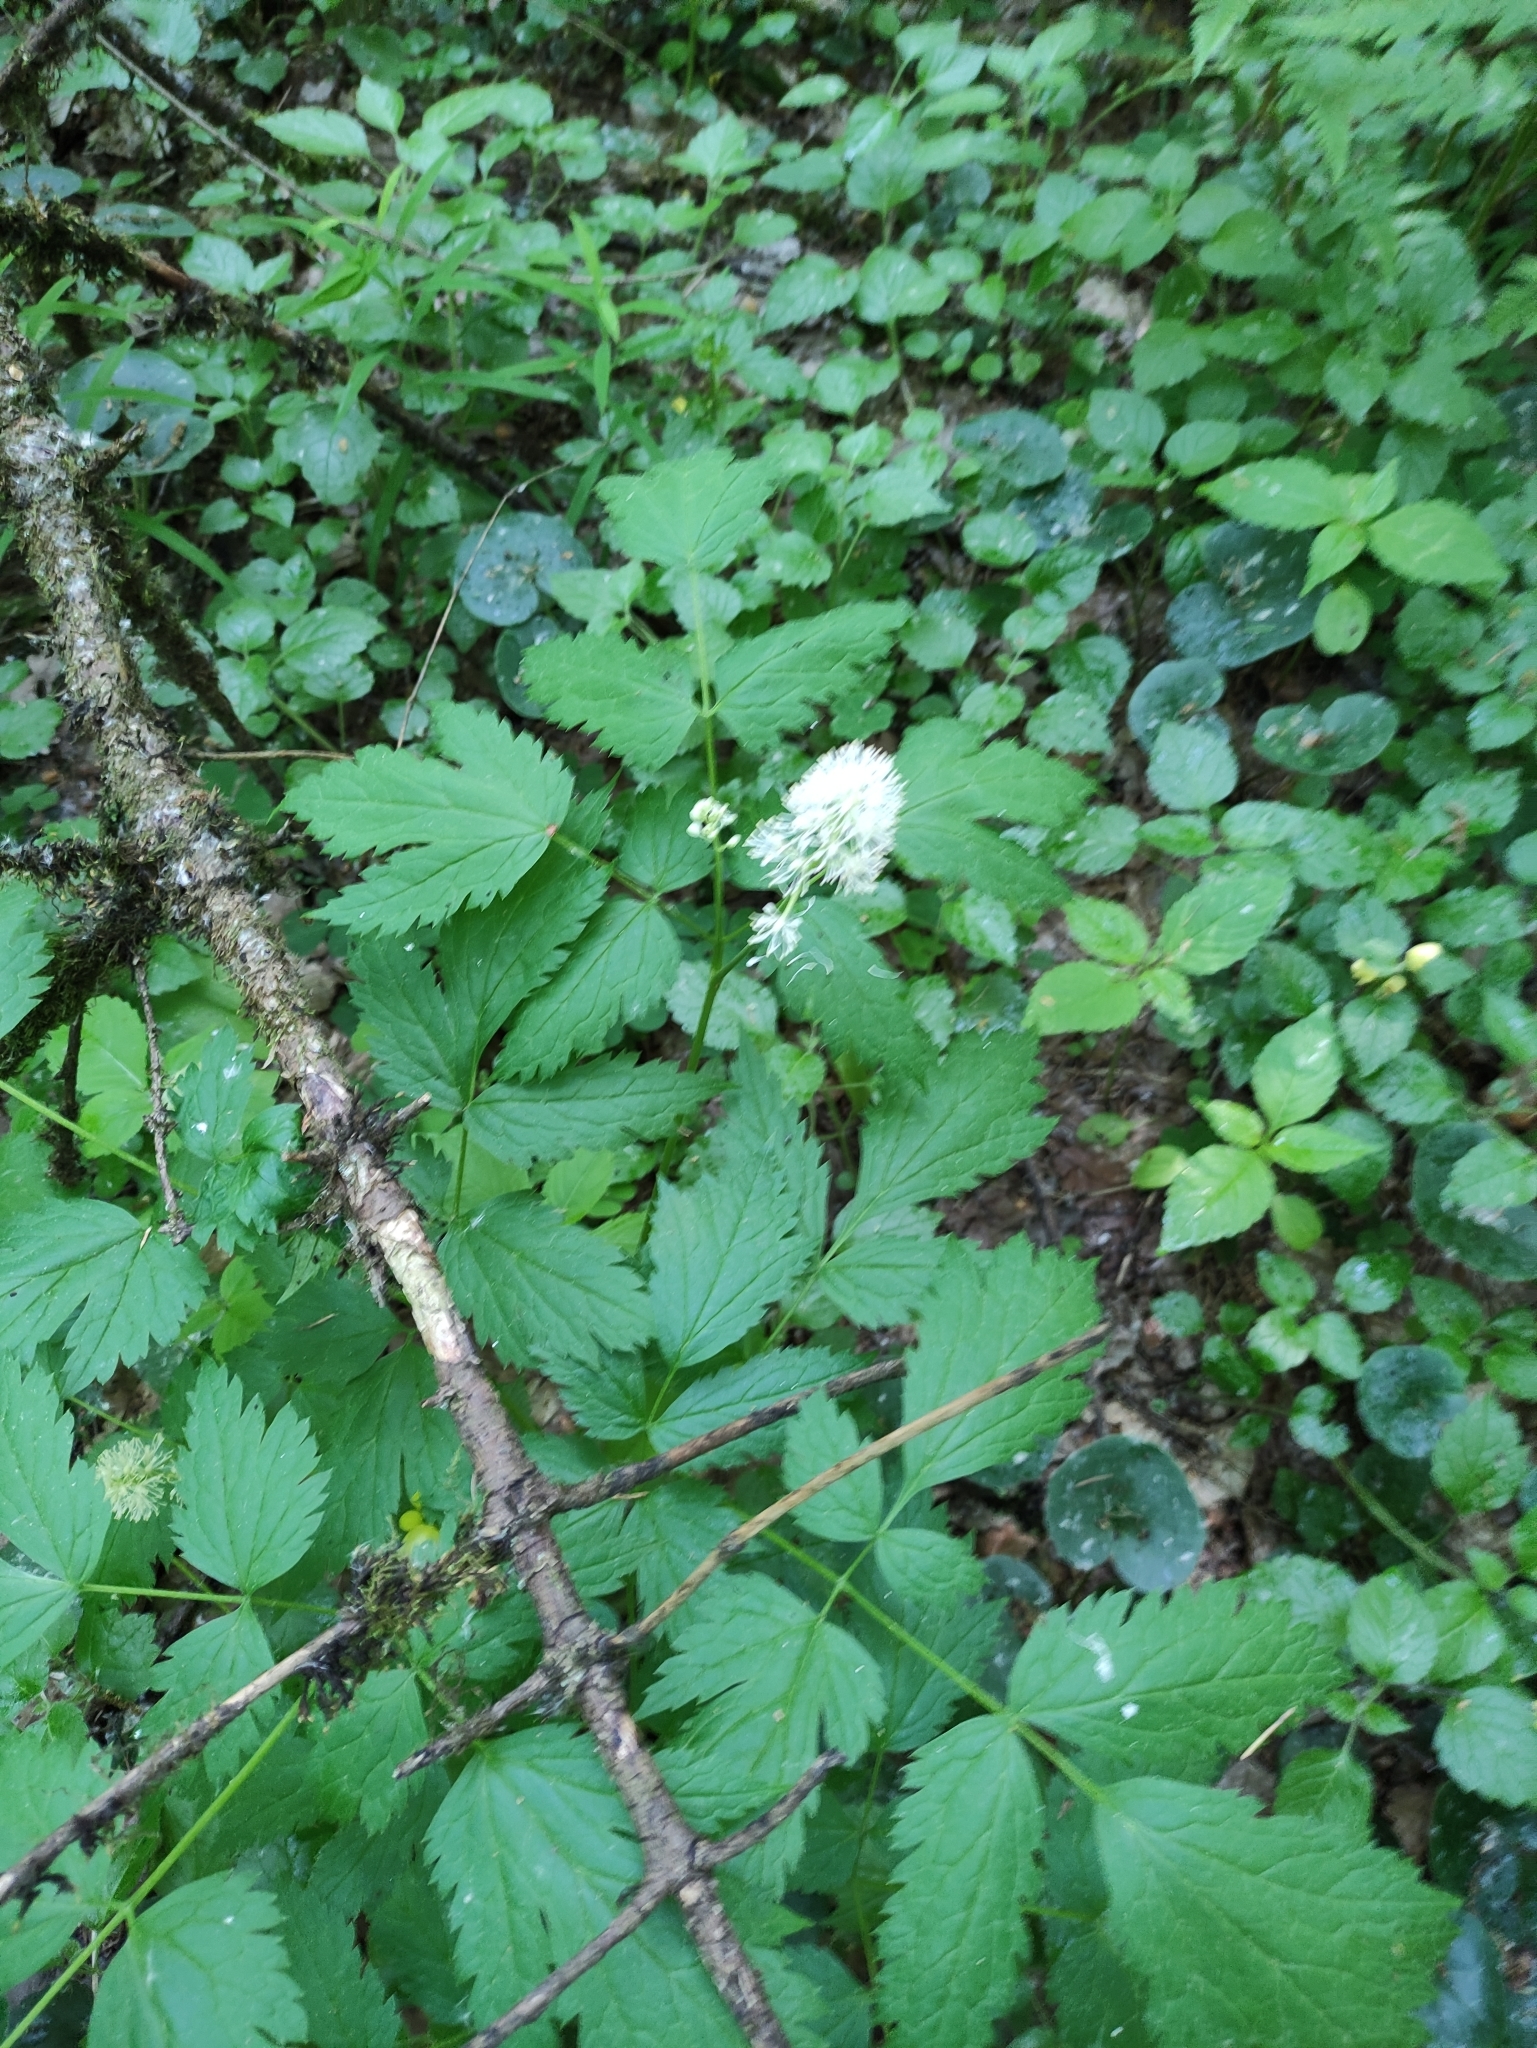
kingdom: Plantae
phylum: Tracheophyta
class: Magnoliopsida
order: Ranunculales
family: Ranunculaceae
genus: Actaea
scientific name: Actaea spicata
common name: Baneberry
